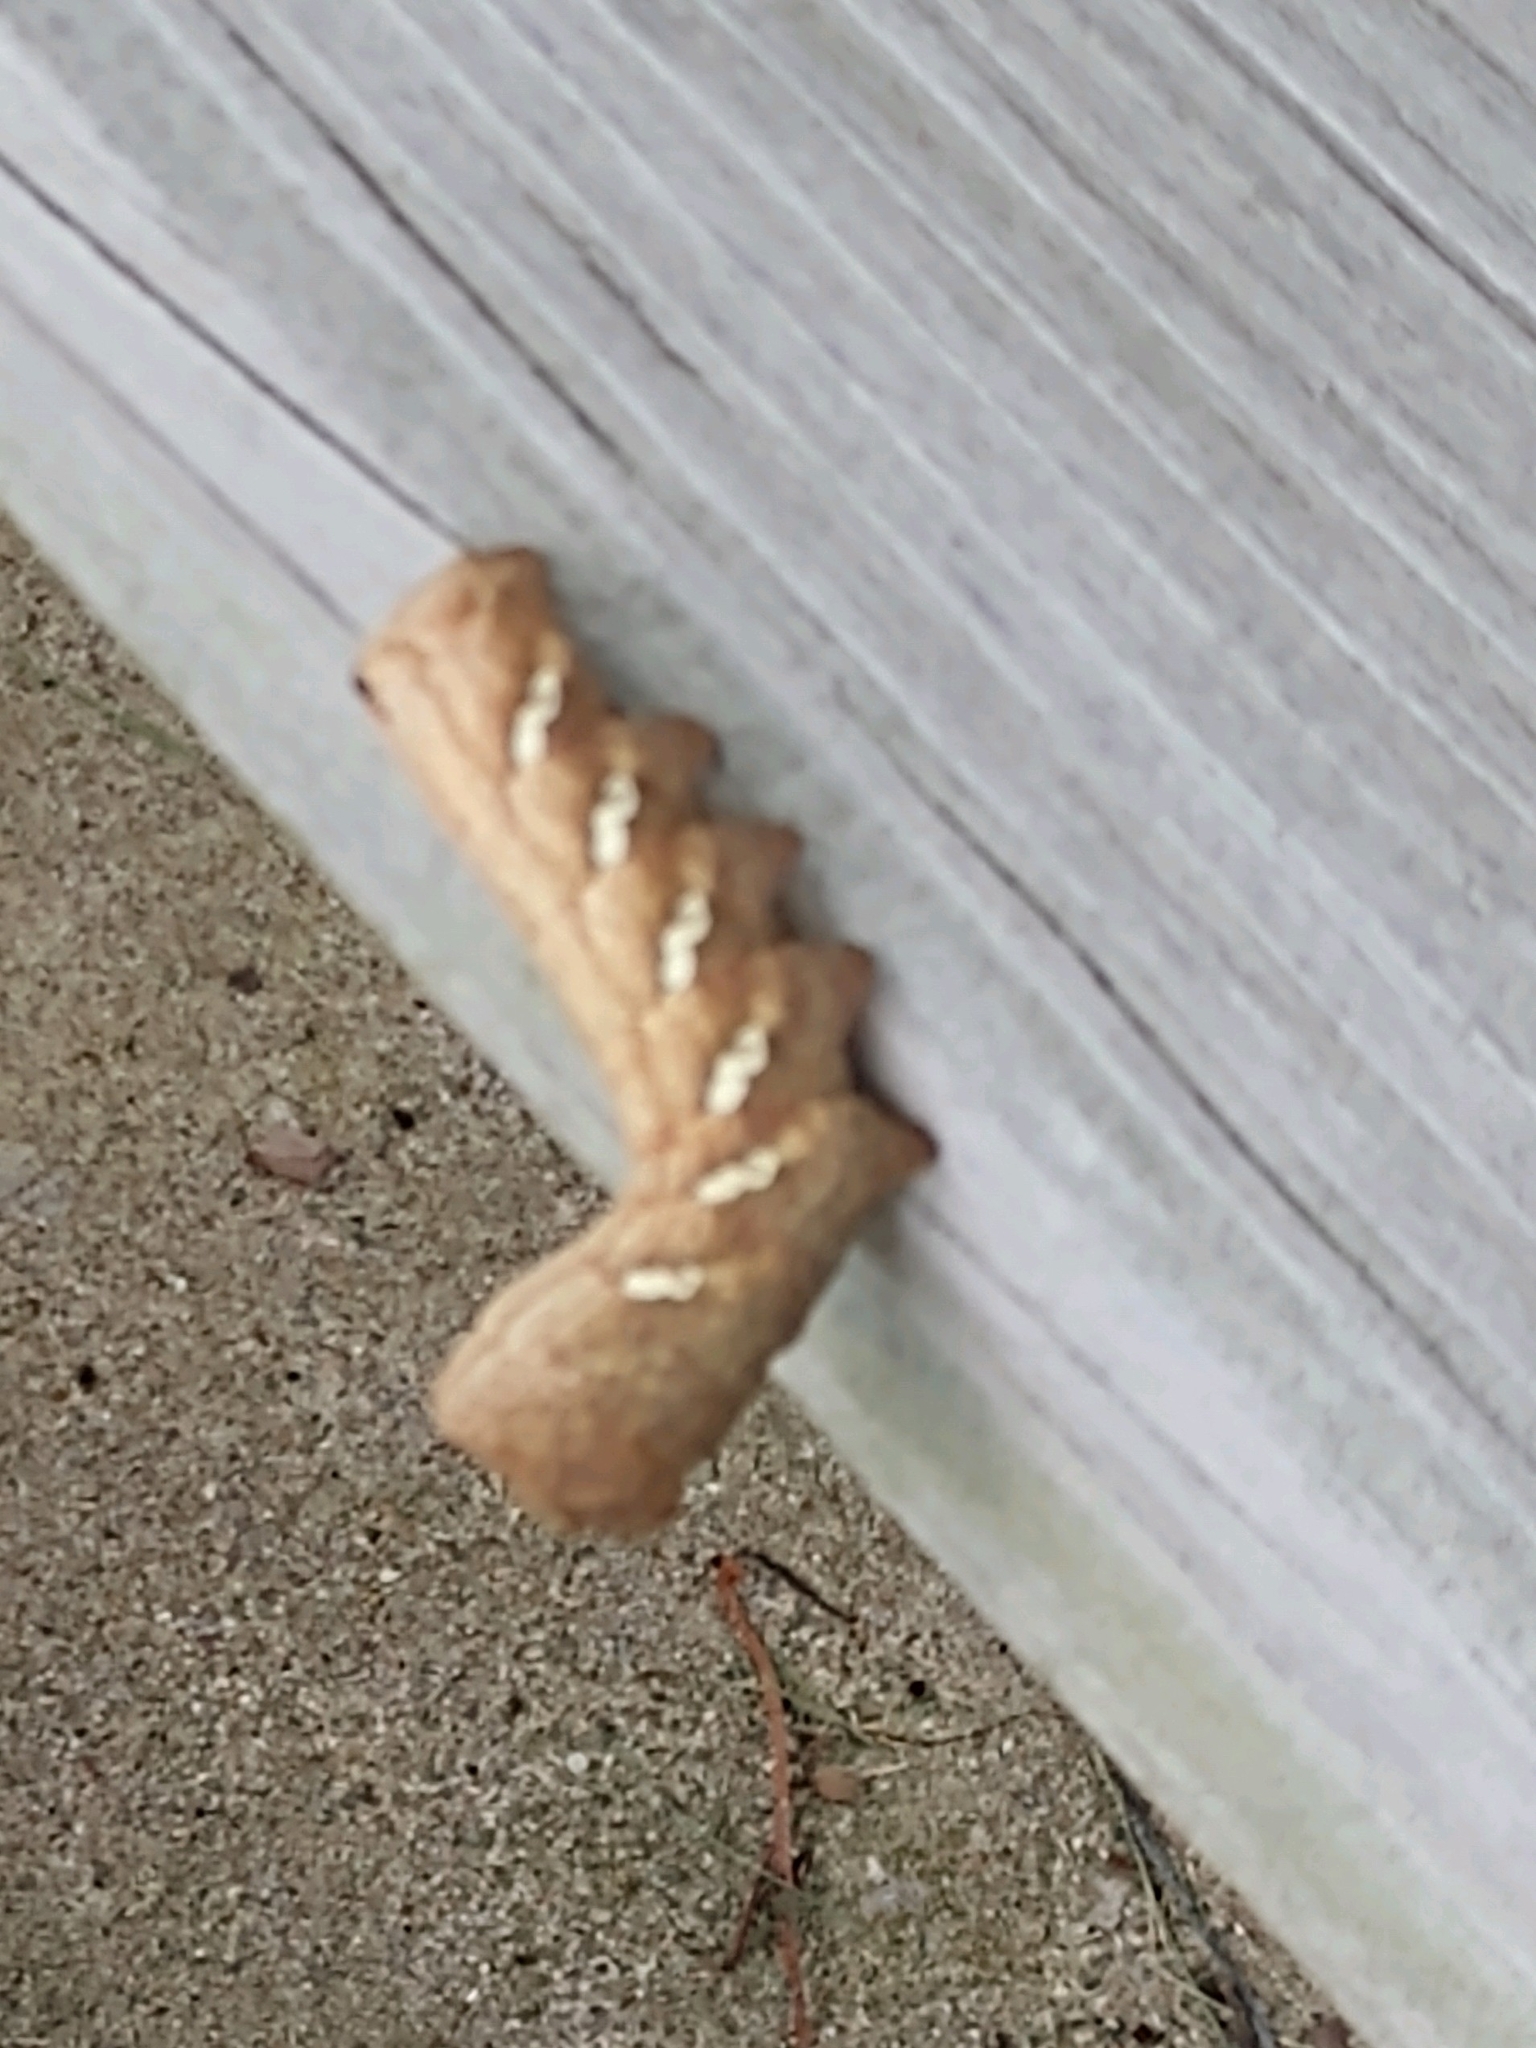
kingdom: Animalia
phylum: Arthropoda
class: Insecta
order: Lepidoptera
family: Sphingidae
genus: Eumorpha
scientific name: Eumorpha achemon
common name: Achemon sphinx
